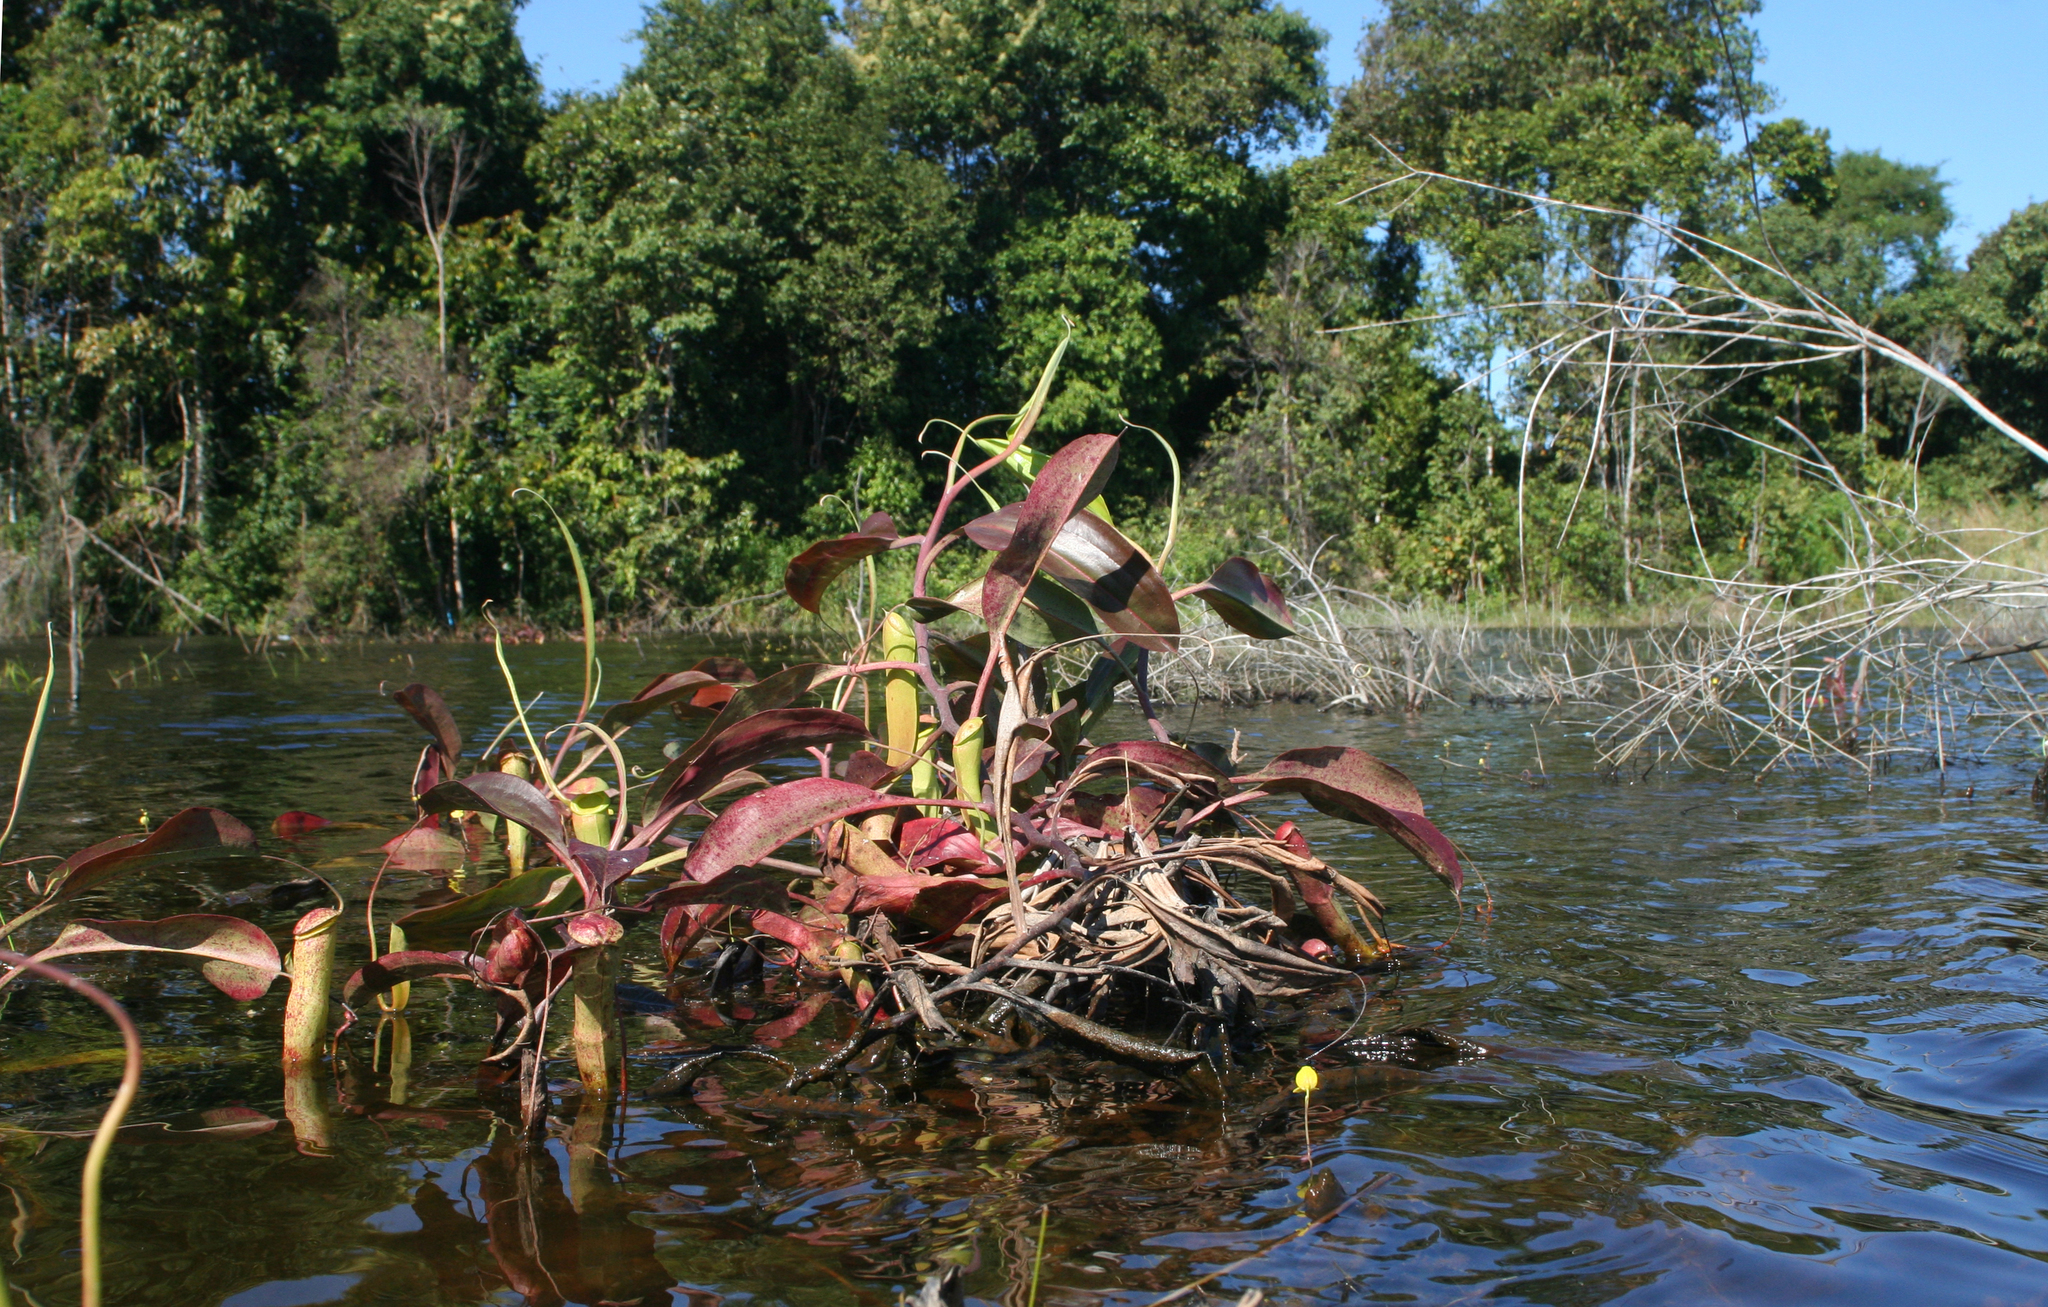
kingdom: Plantae
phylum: Tracheophyta
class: Magnoliopsida
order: Caryophyllales
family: Nepenthaceae
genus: Nepenthes
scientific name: Nepenthes mirabilis
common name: Tropical pitcherplant
